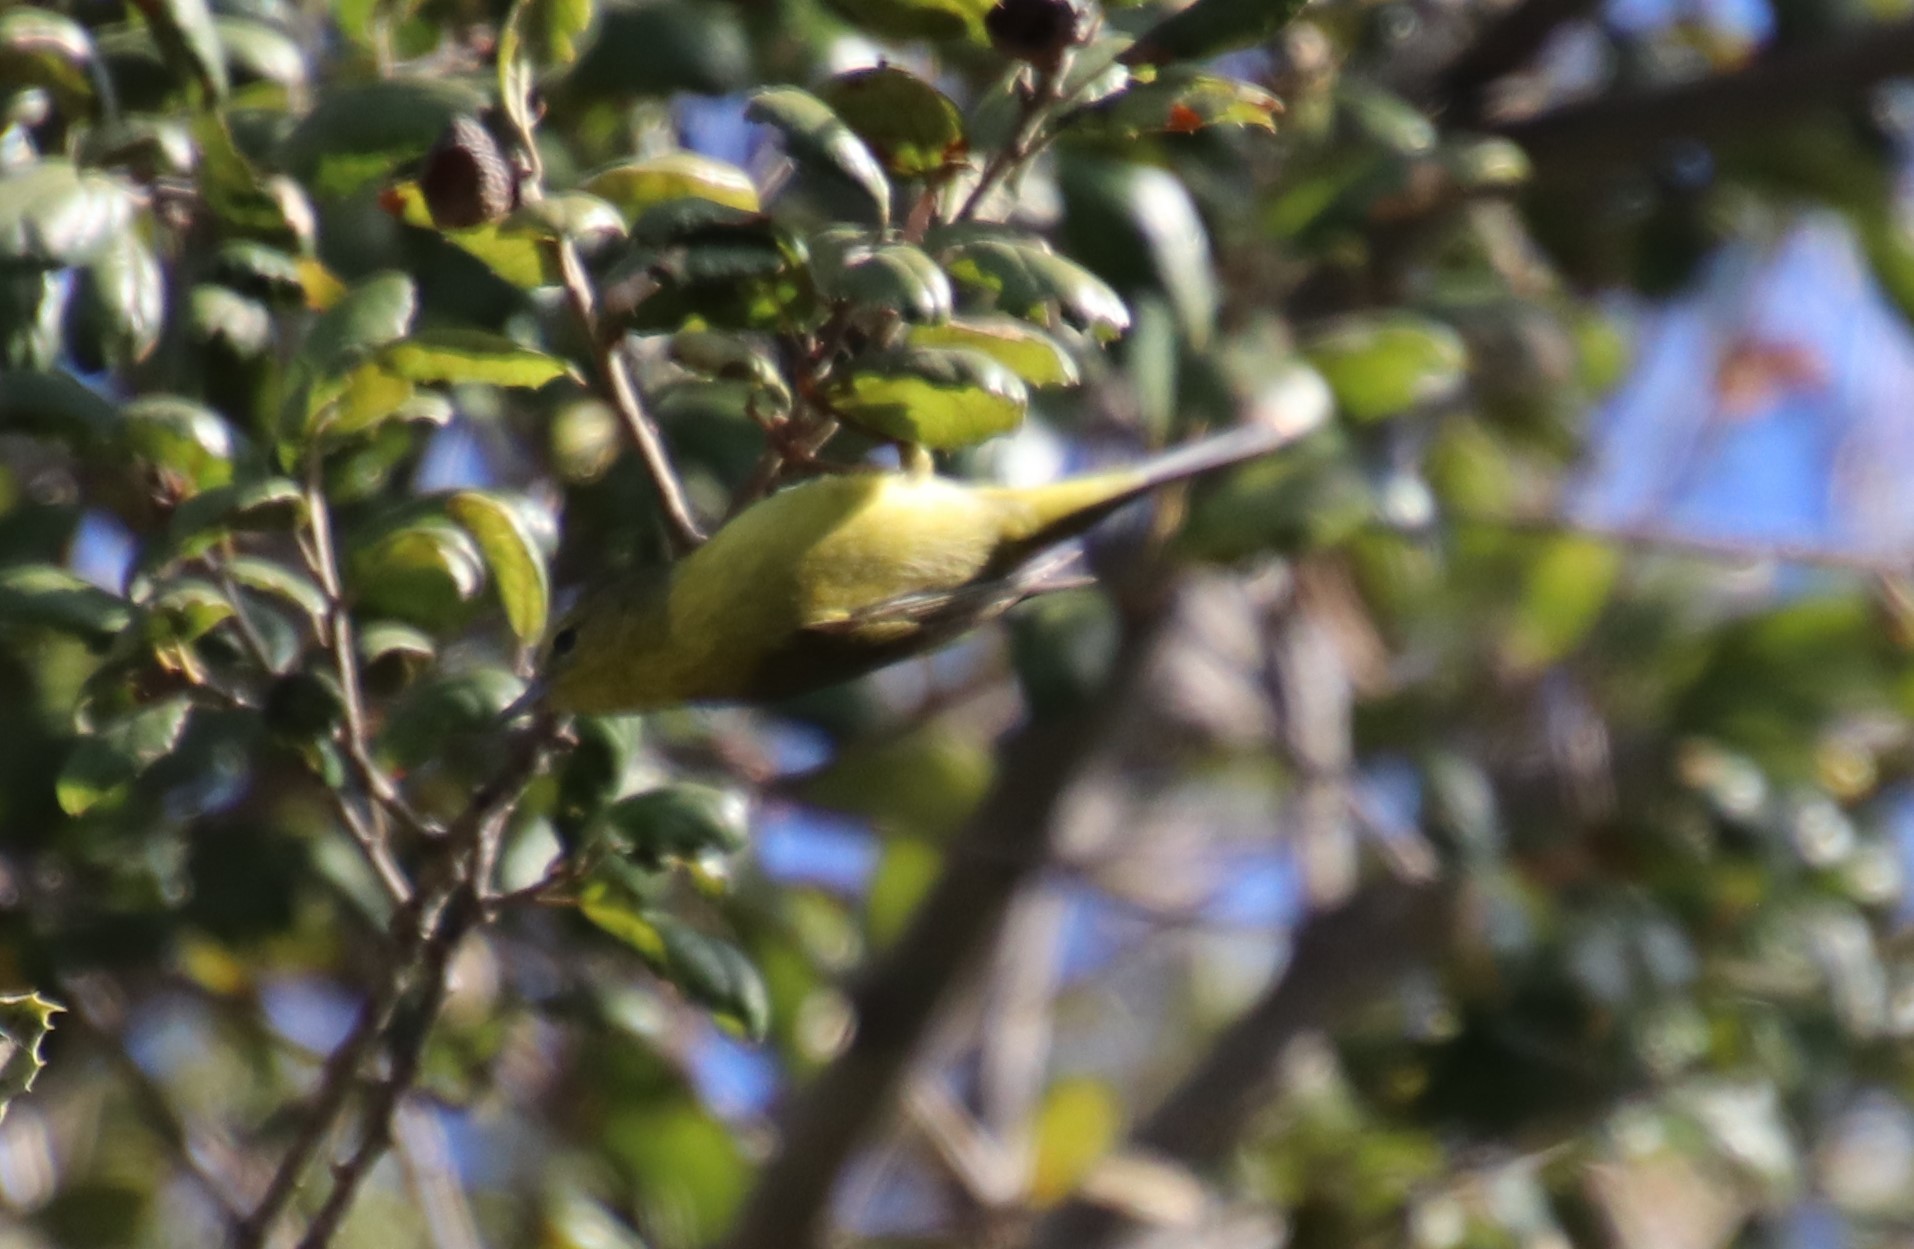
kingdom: Animalia
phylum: Chordata
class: Aves
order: Passeriformes
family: Parulidae
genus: Leiothlypis
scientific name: Leiothlypis celata
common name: Orange-crowned warbler
